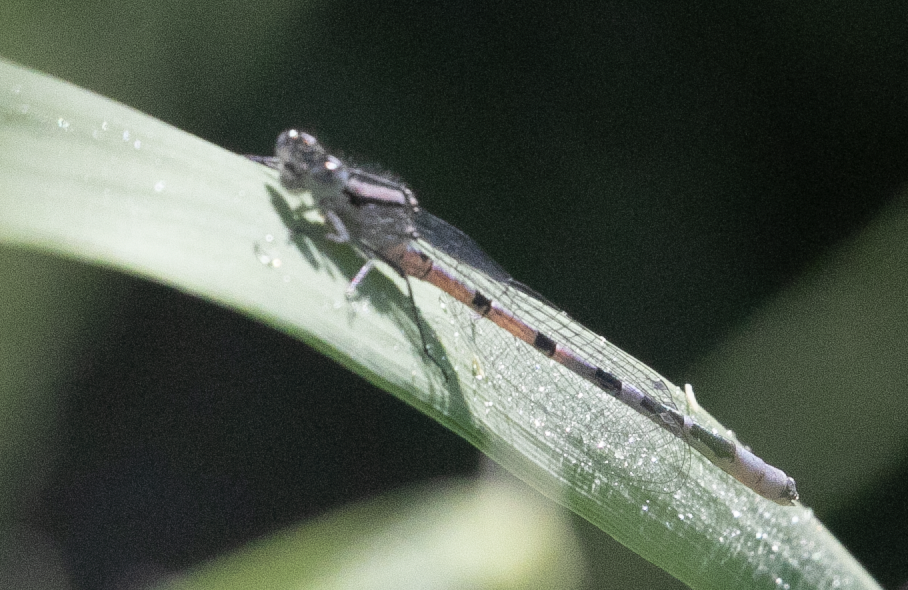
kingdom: Animalia
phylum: Arthropoda
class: Insecta
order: Odonata
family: Coenagrionidae
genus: Enallagma
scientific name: Enallagma cyathigerum
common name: Common blue damselfly
